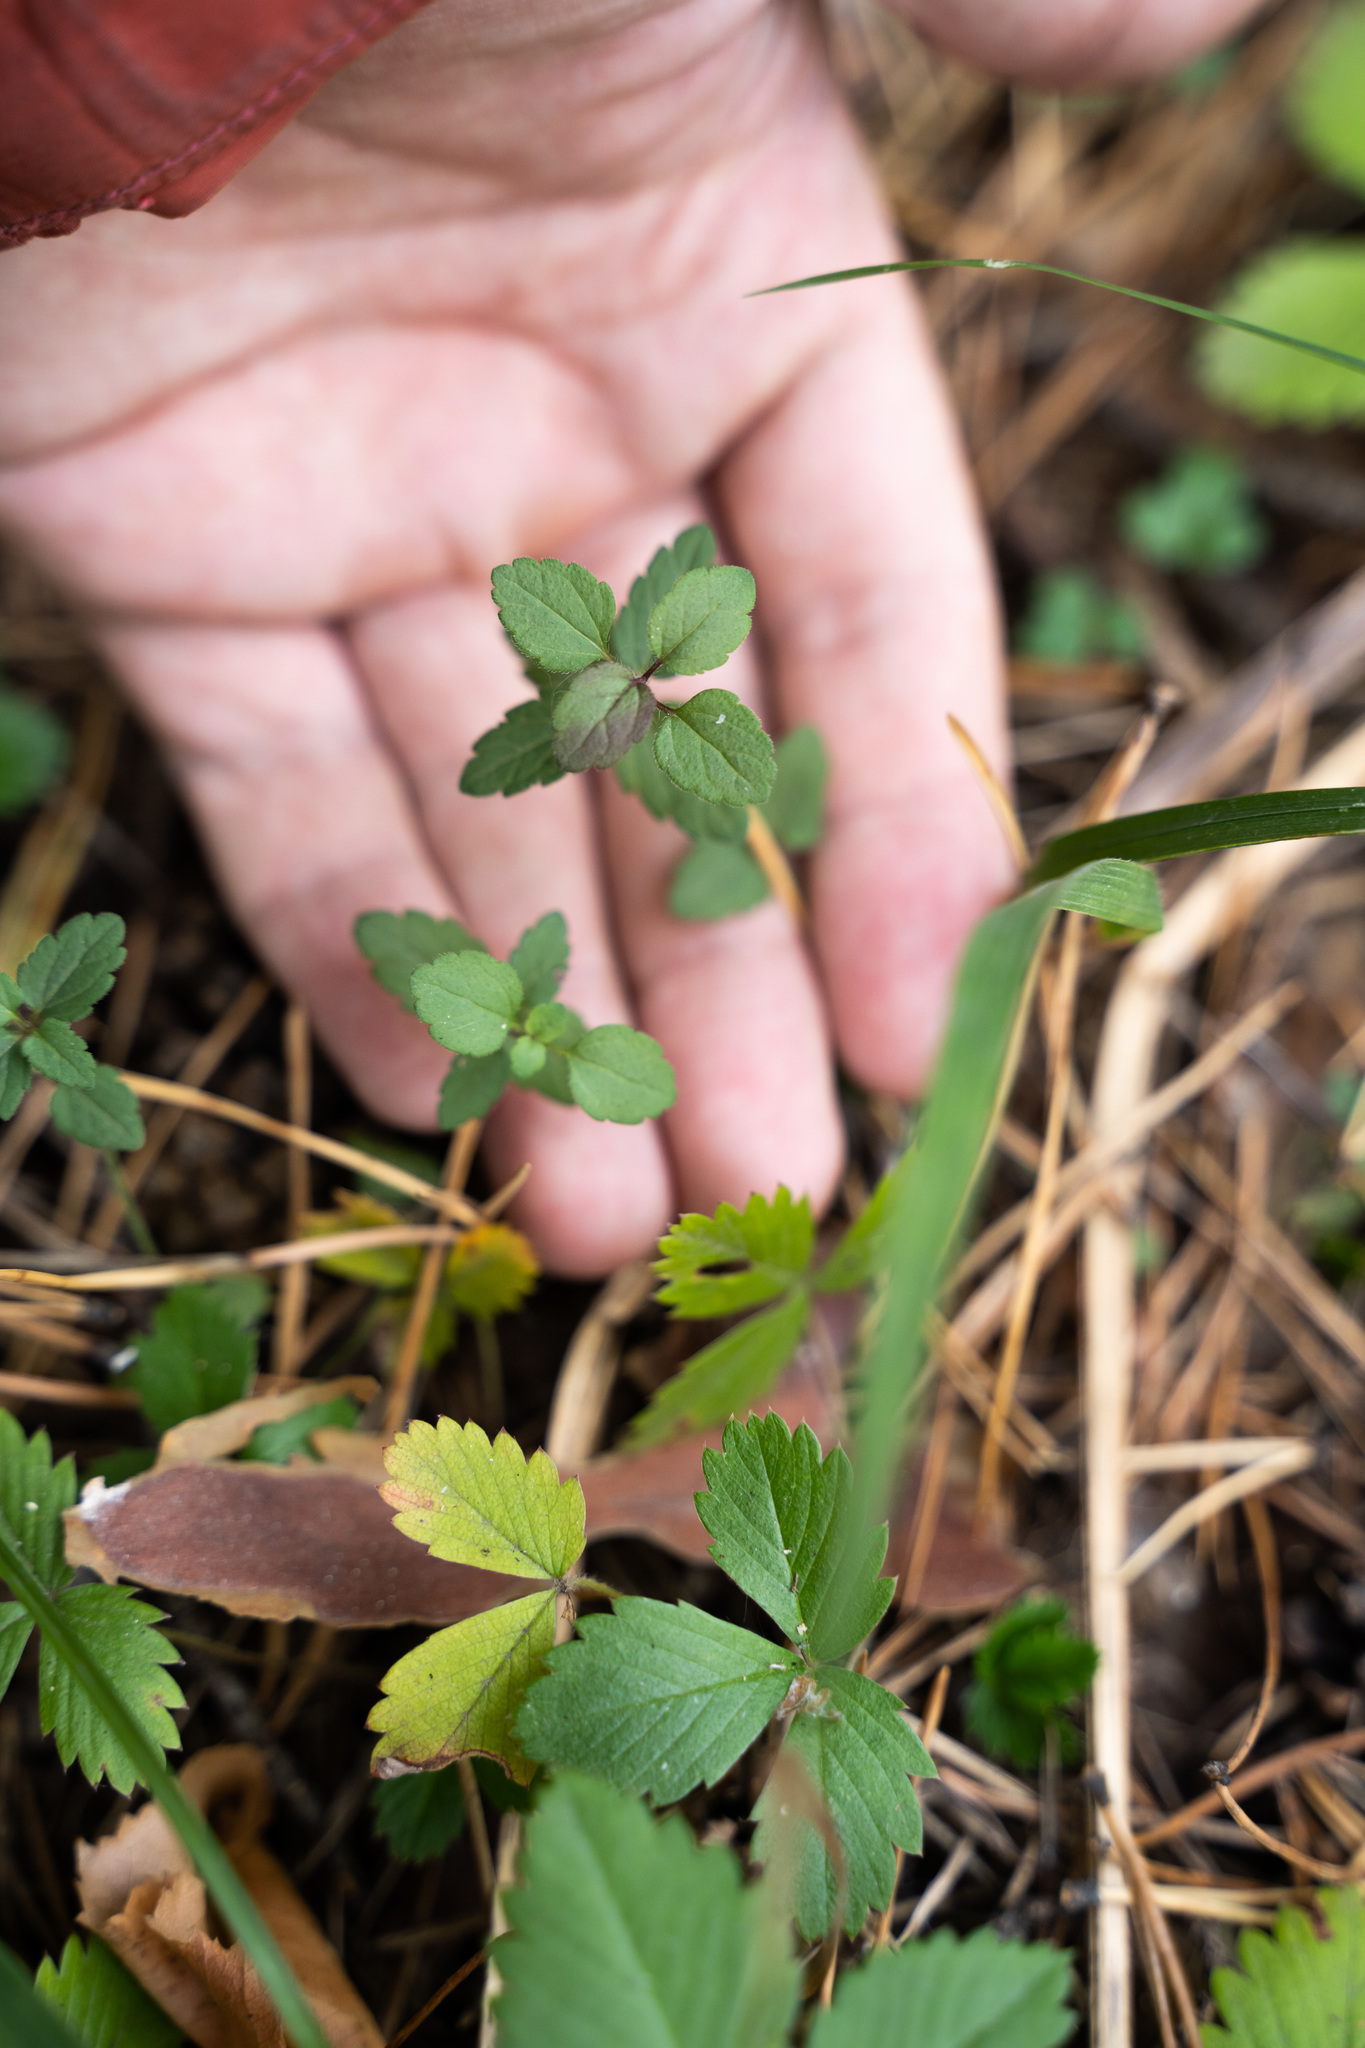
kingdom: Plantae
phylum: Tracheophyta
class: Magnoliopsida
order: Lamiales
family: Plantaginaceae
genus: Veronica
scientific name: Veronica chamaedrys
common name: Germander speedwell
